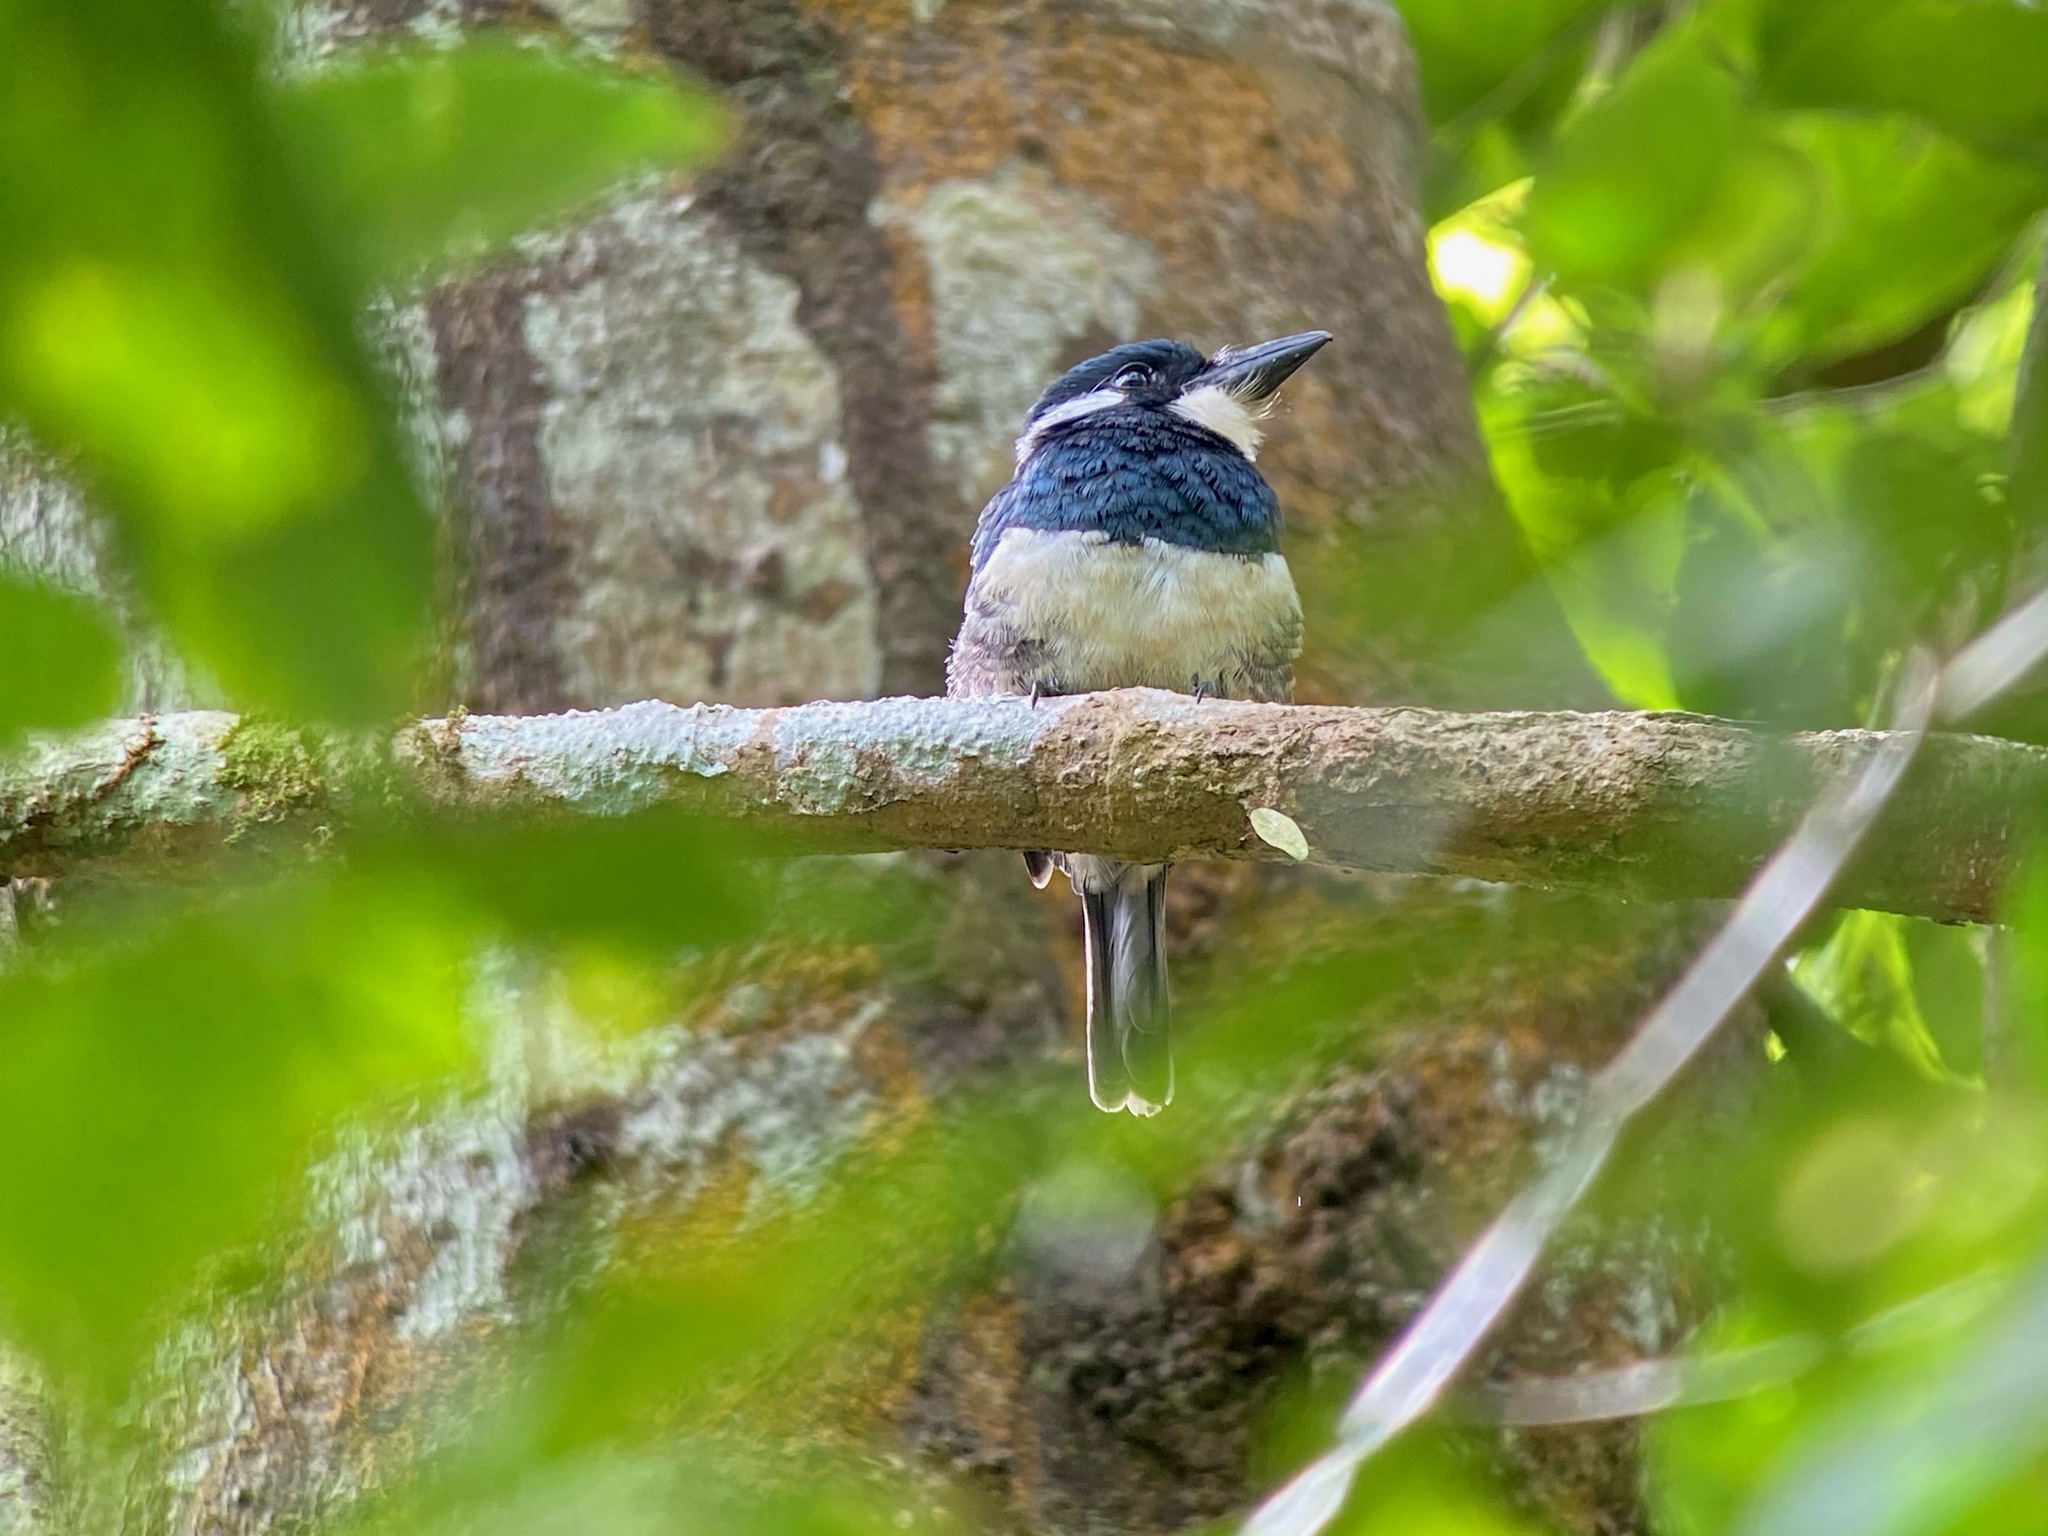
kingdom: Animalia
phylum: Chordata
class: Aves
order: Piciformes
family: Bucconidae
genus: Notharchus
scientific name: Notharchus pectoralis
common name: Black-breasted puffbird
